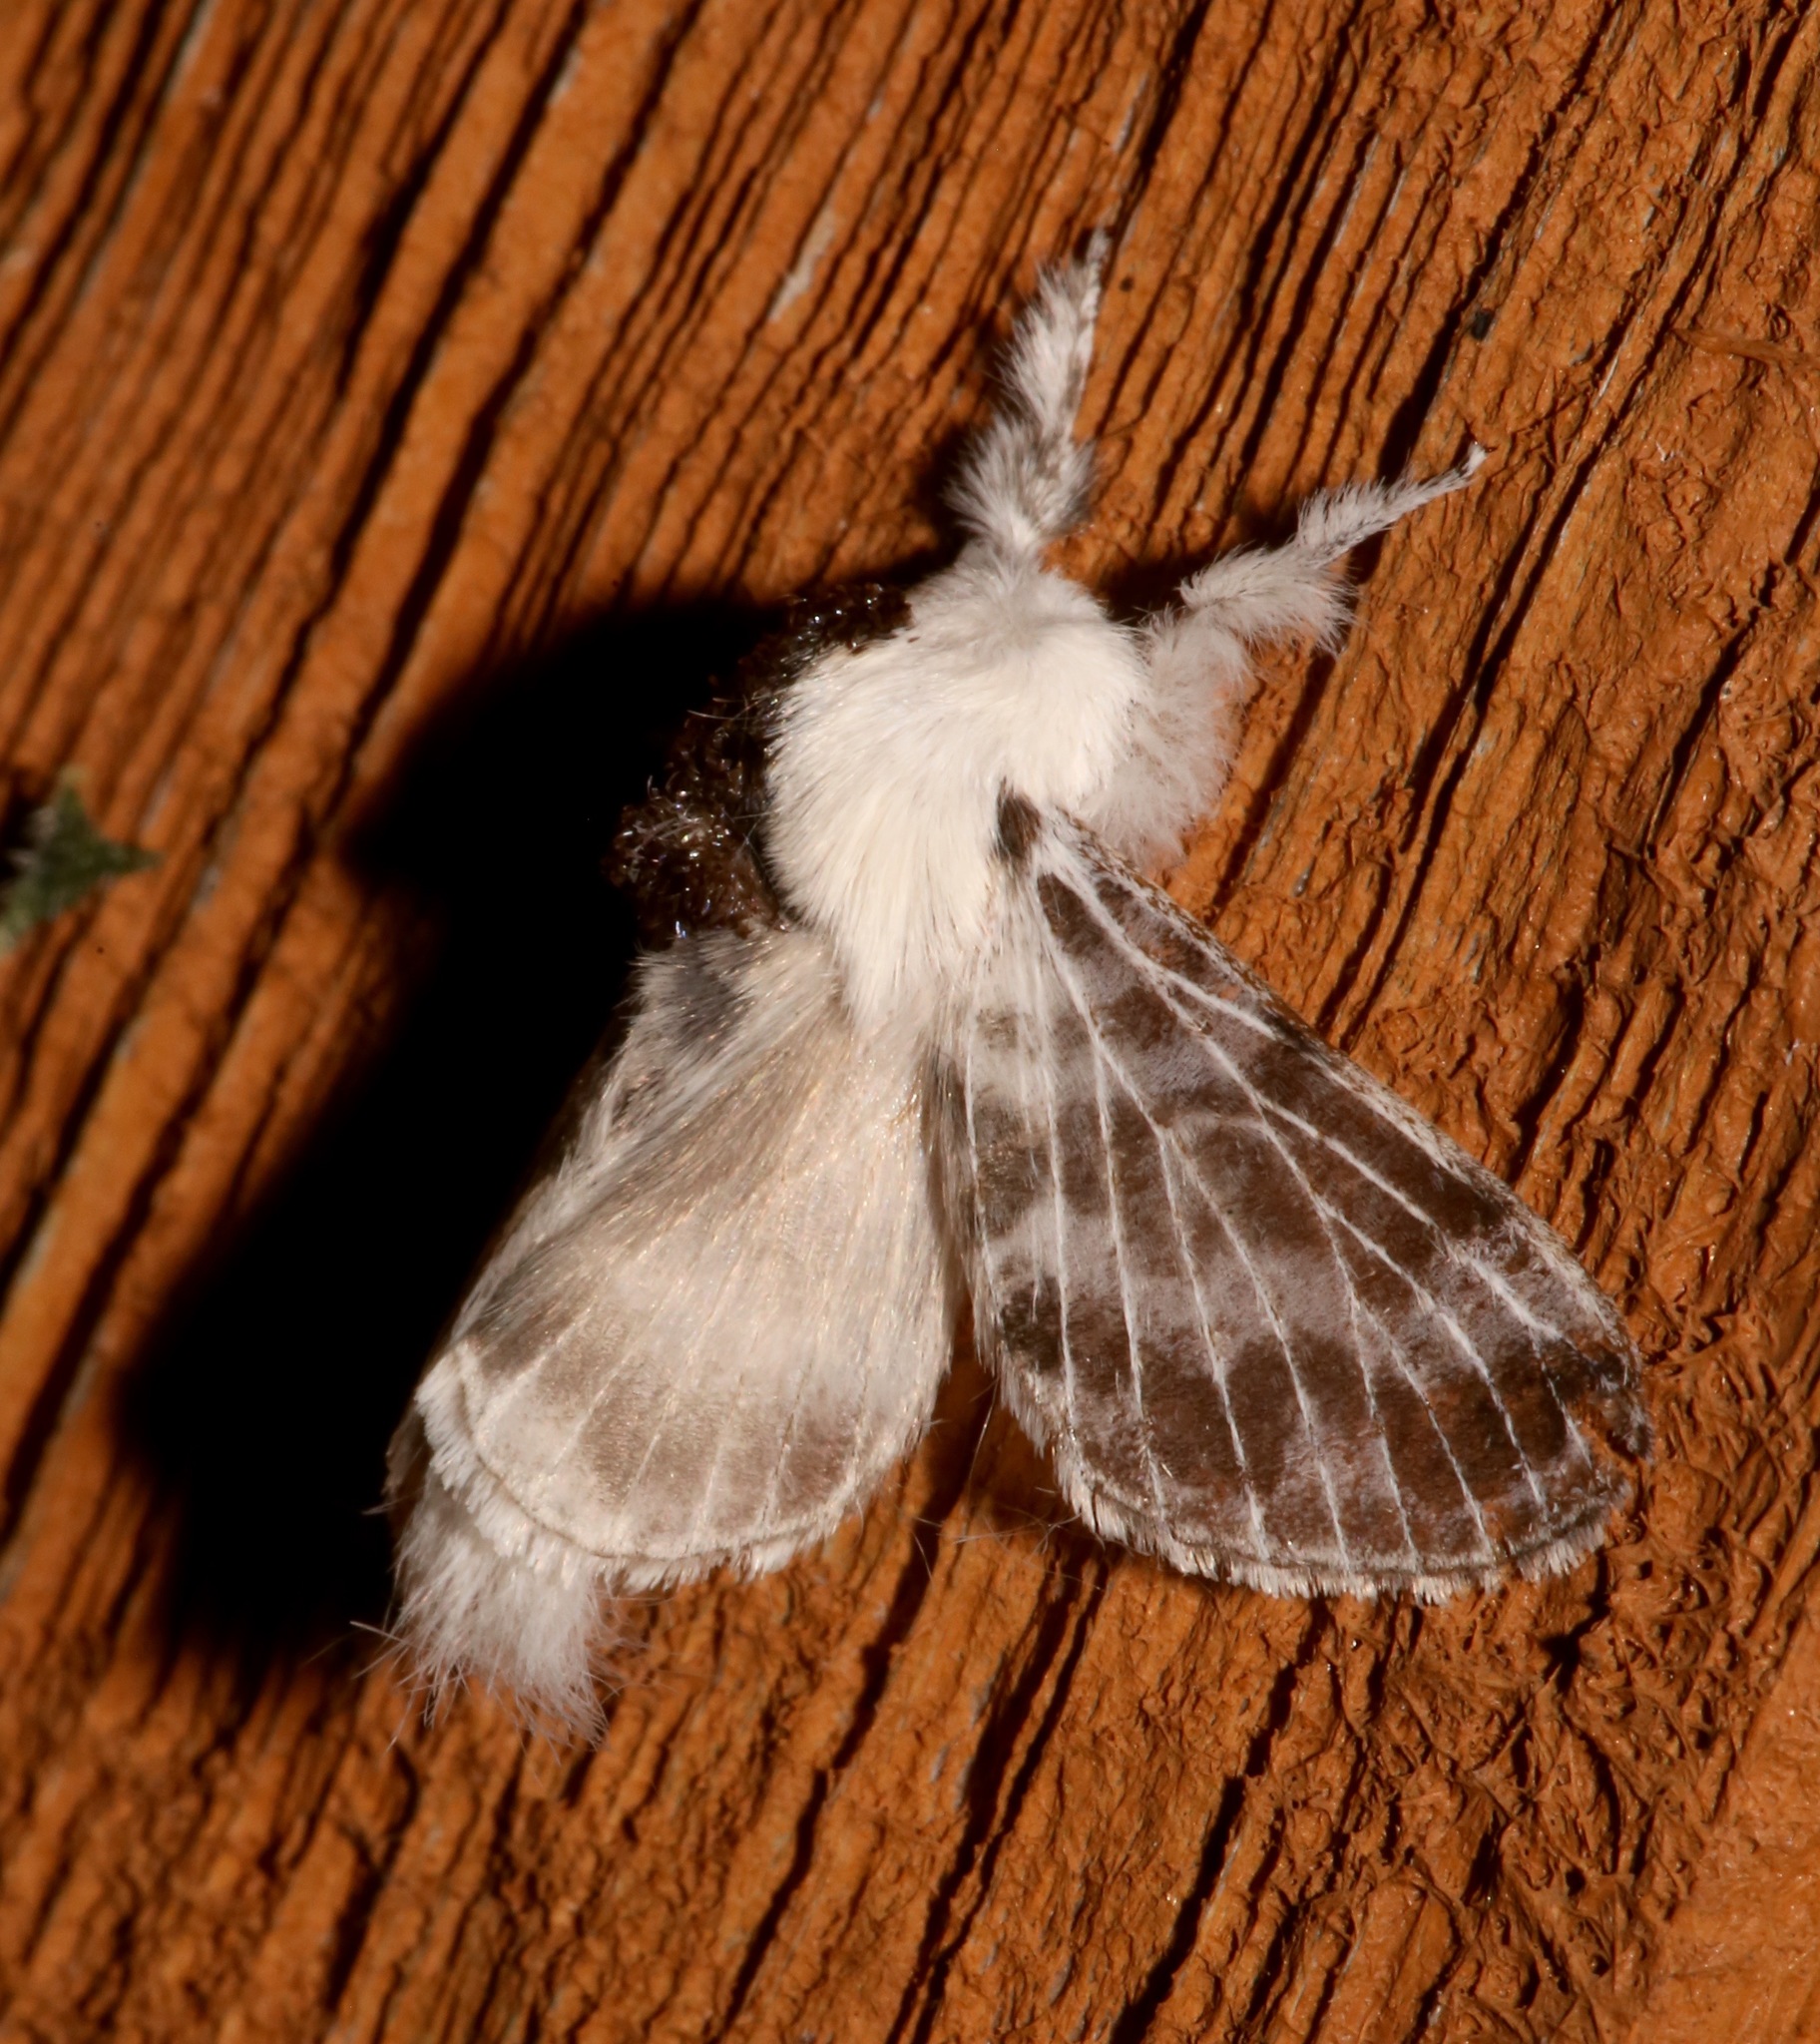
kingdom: Animalia
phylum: Arthropoda
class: Insecta
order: Lepidoptera
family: Lasiocampidae
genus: Tolype
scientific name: Tolype notialis
